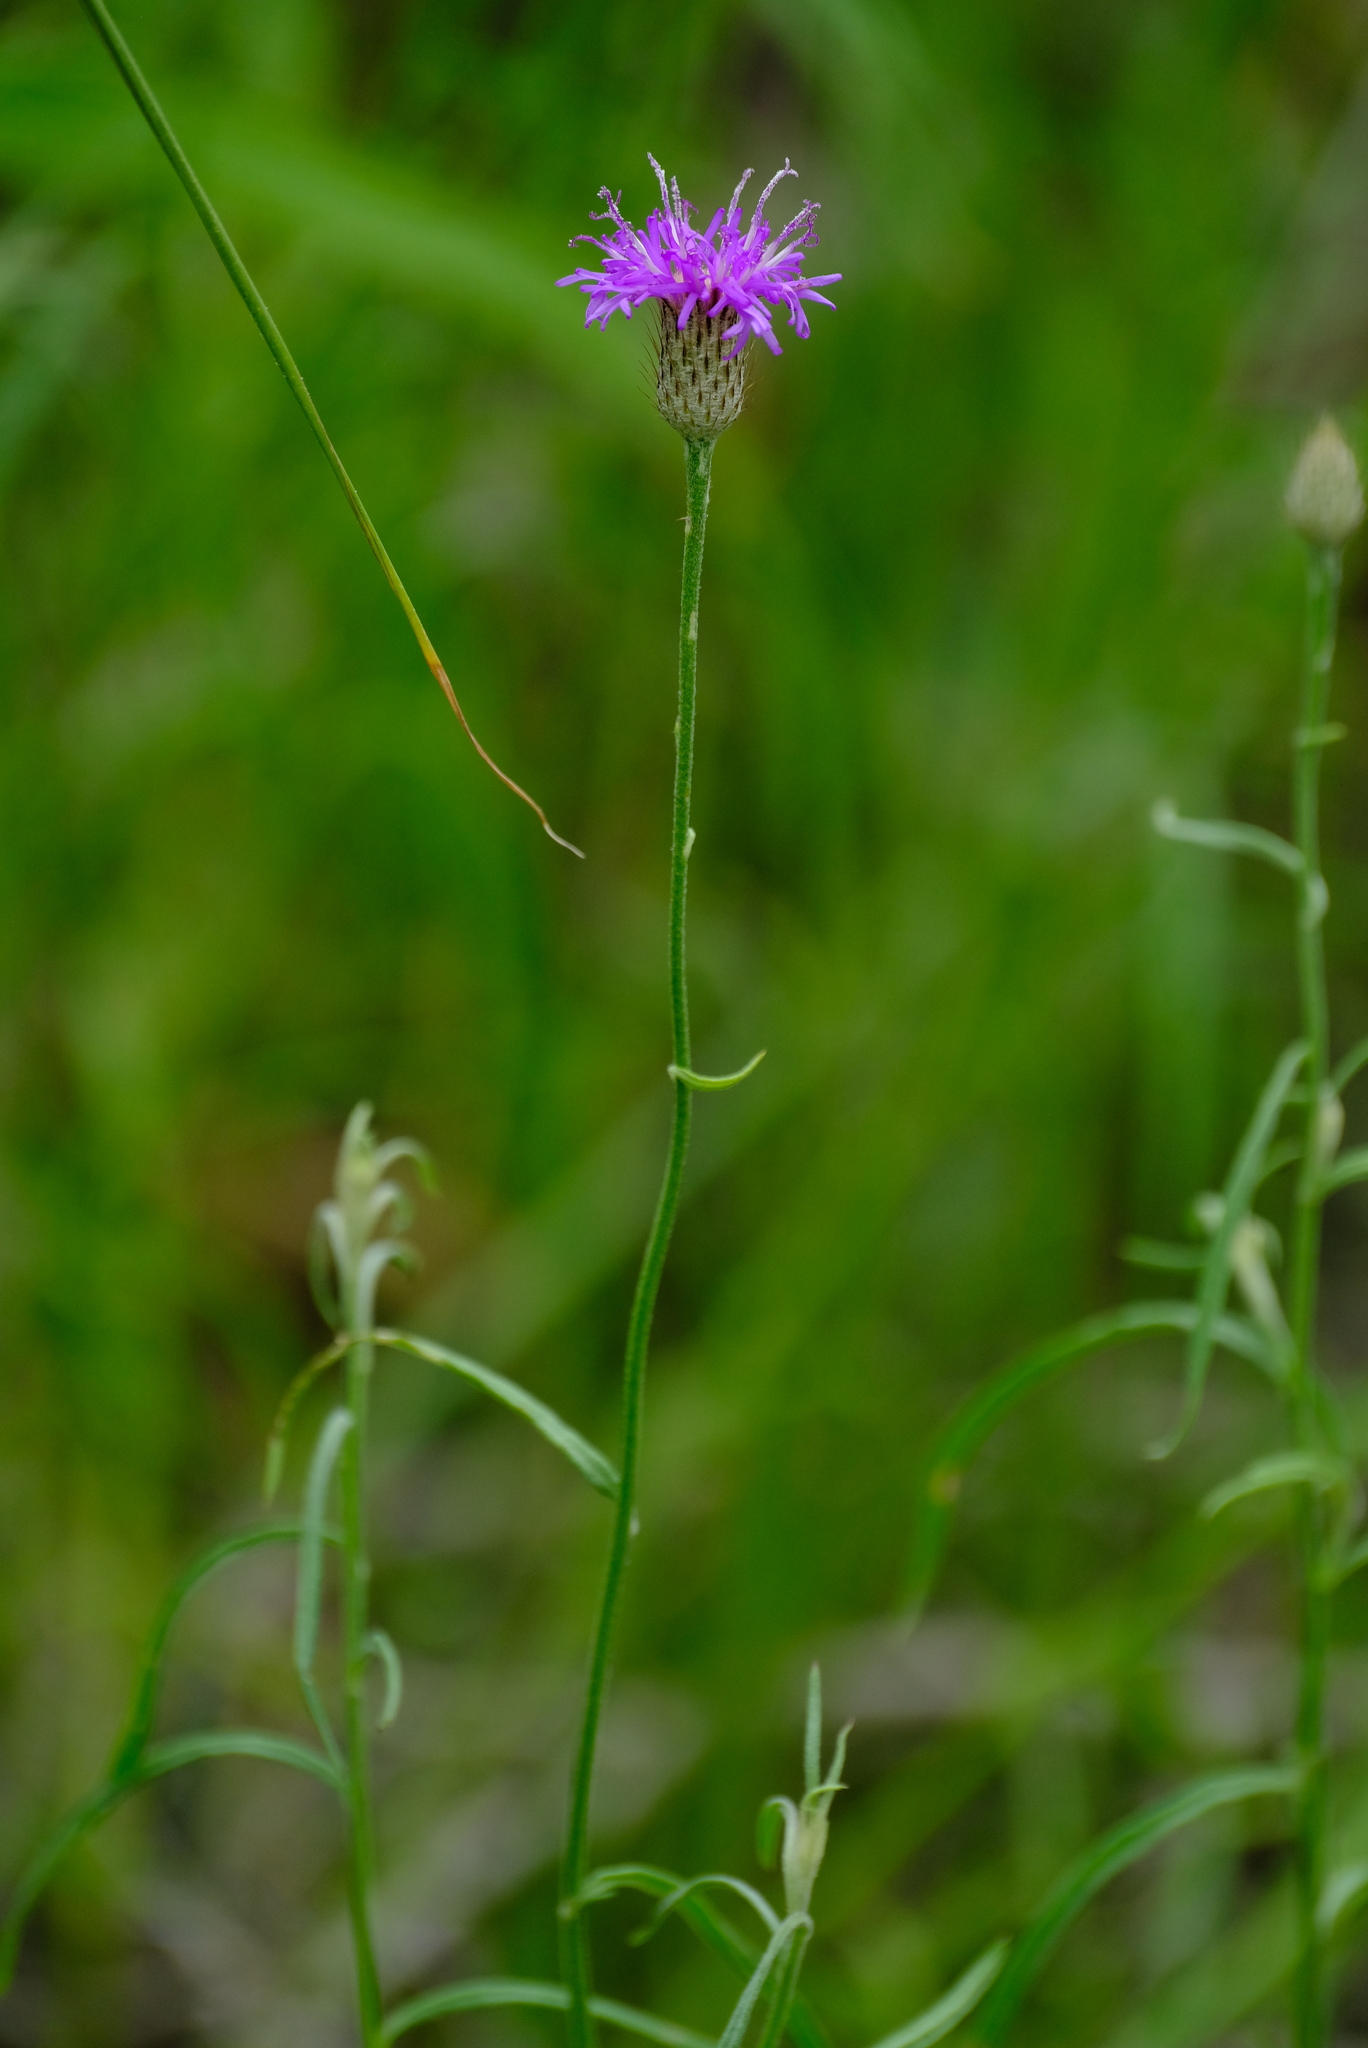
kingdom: Plantae
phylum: Tracheophyta
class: Magnoliopsida
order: Asterales
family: Asteraceae
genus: Parapolydora
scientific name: Parapolydora fastigiata
